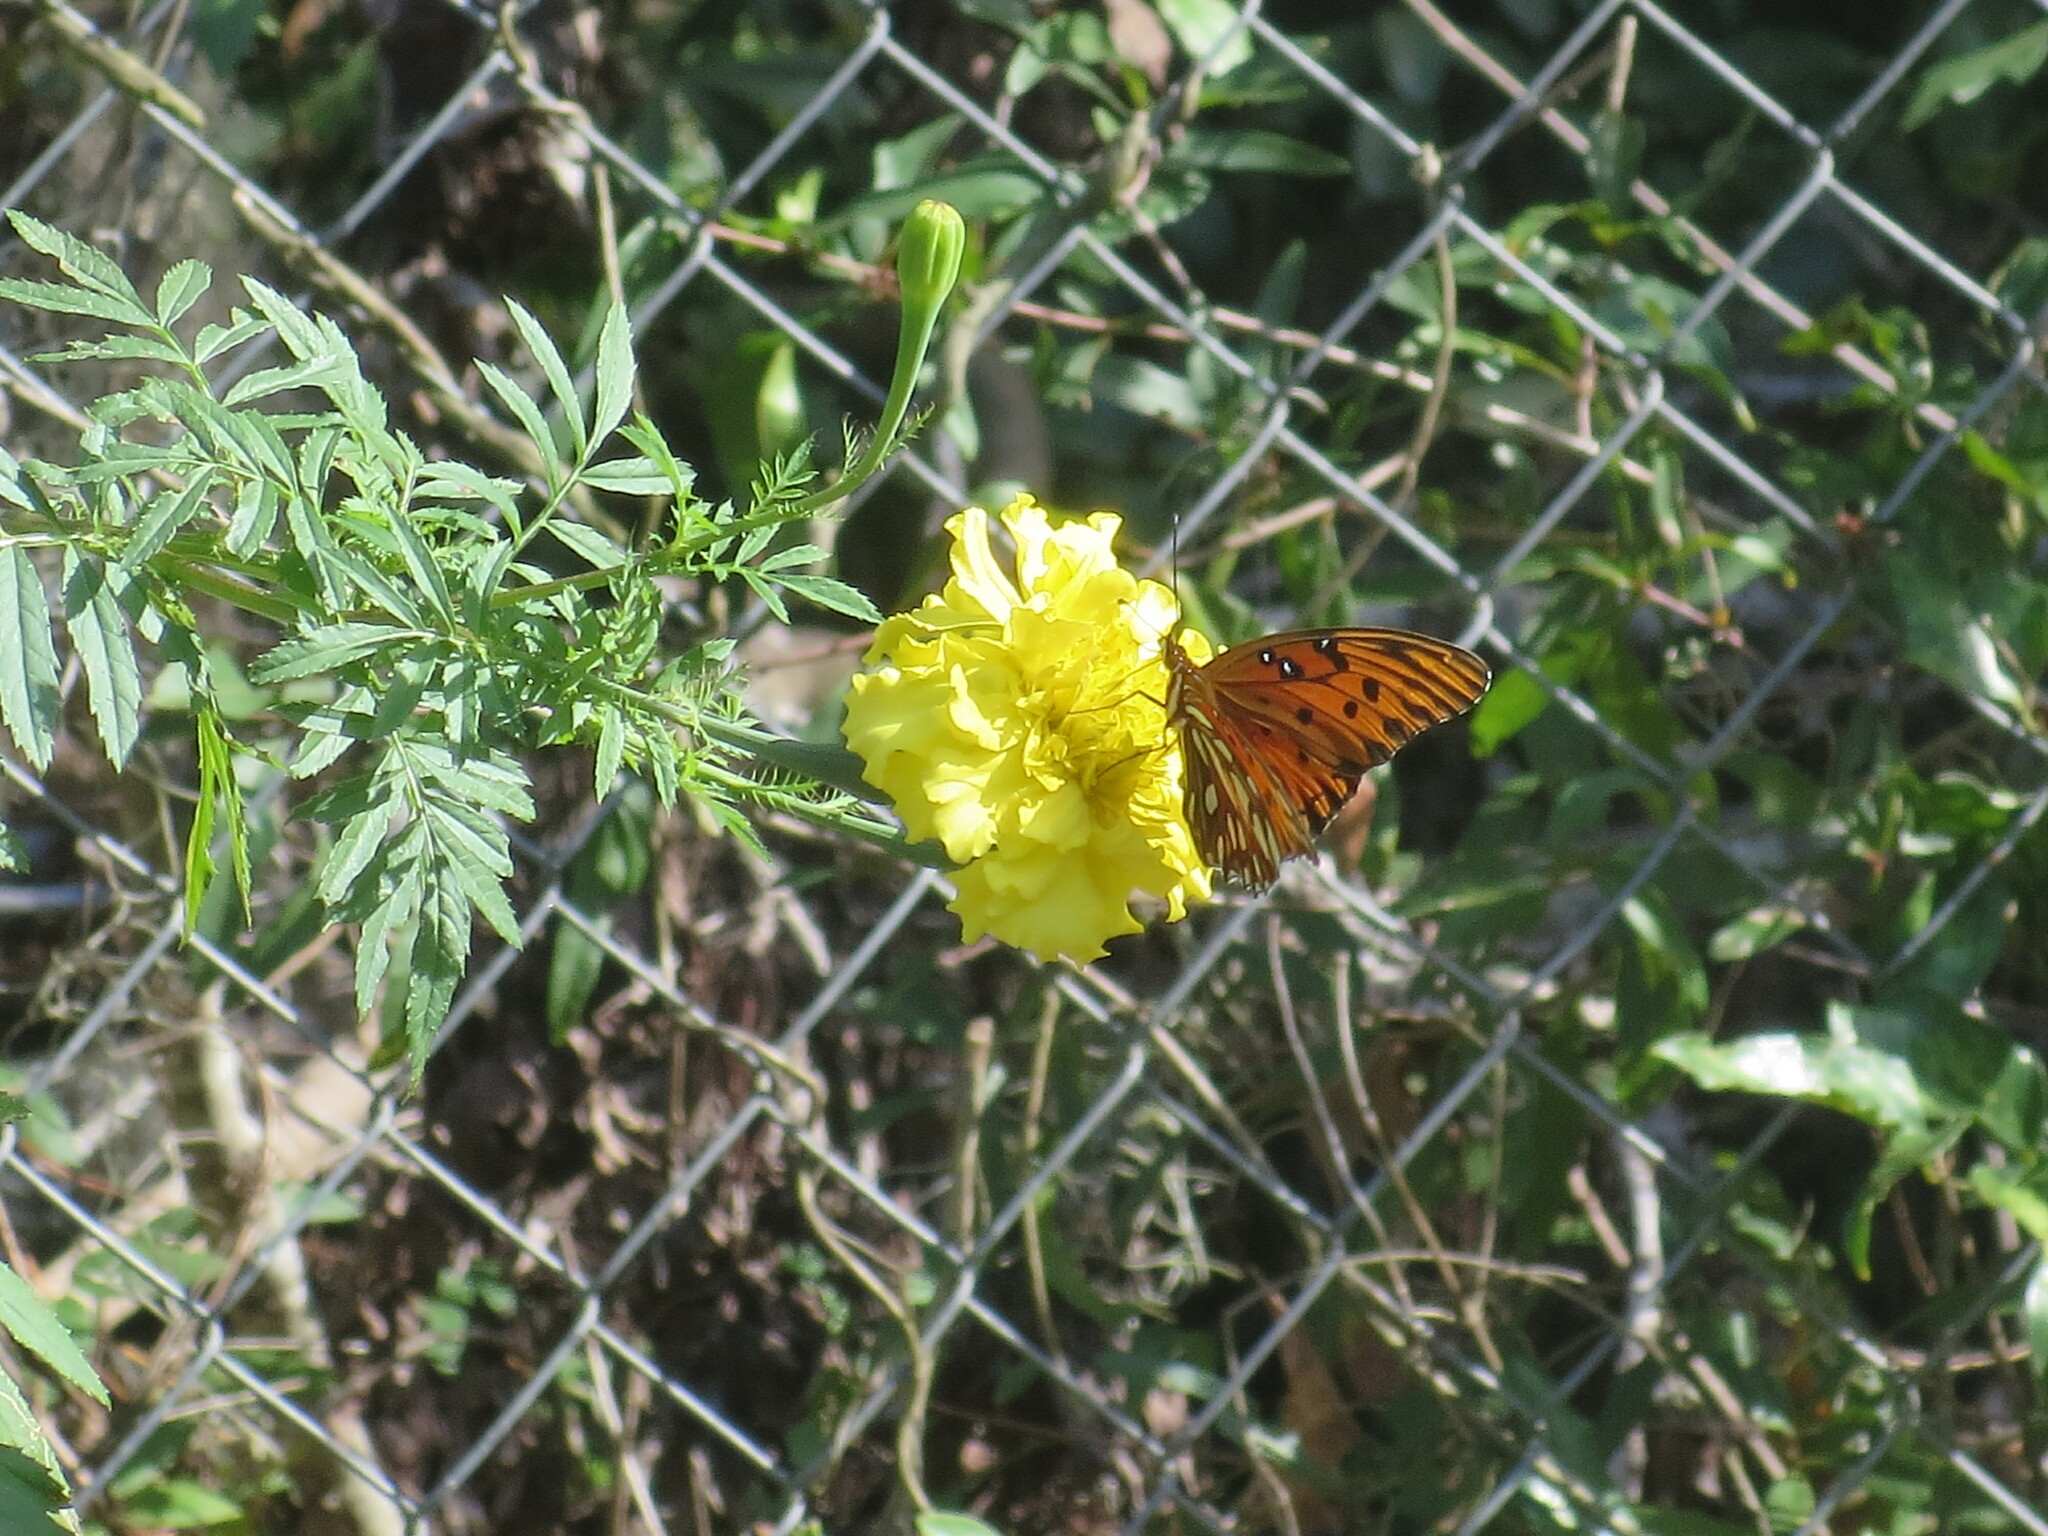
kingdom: Animalia
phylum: Arthropoda
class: Insecta
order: Lepidoptera
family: Nymphalidae
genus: Dione
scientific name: Dione vanillae
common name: Gulf fritillary
